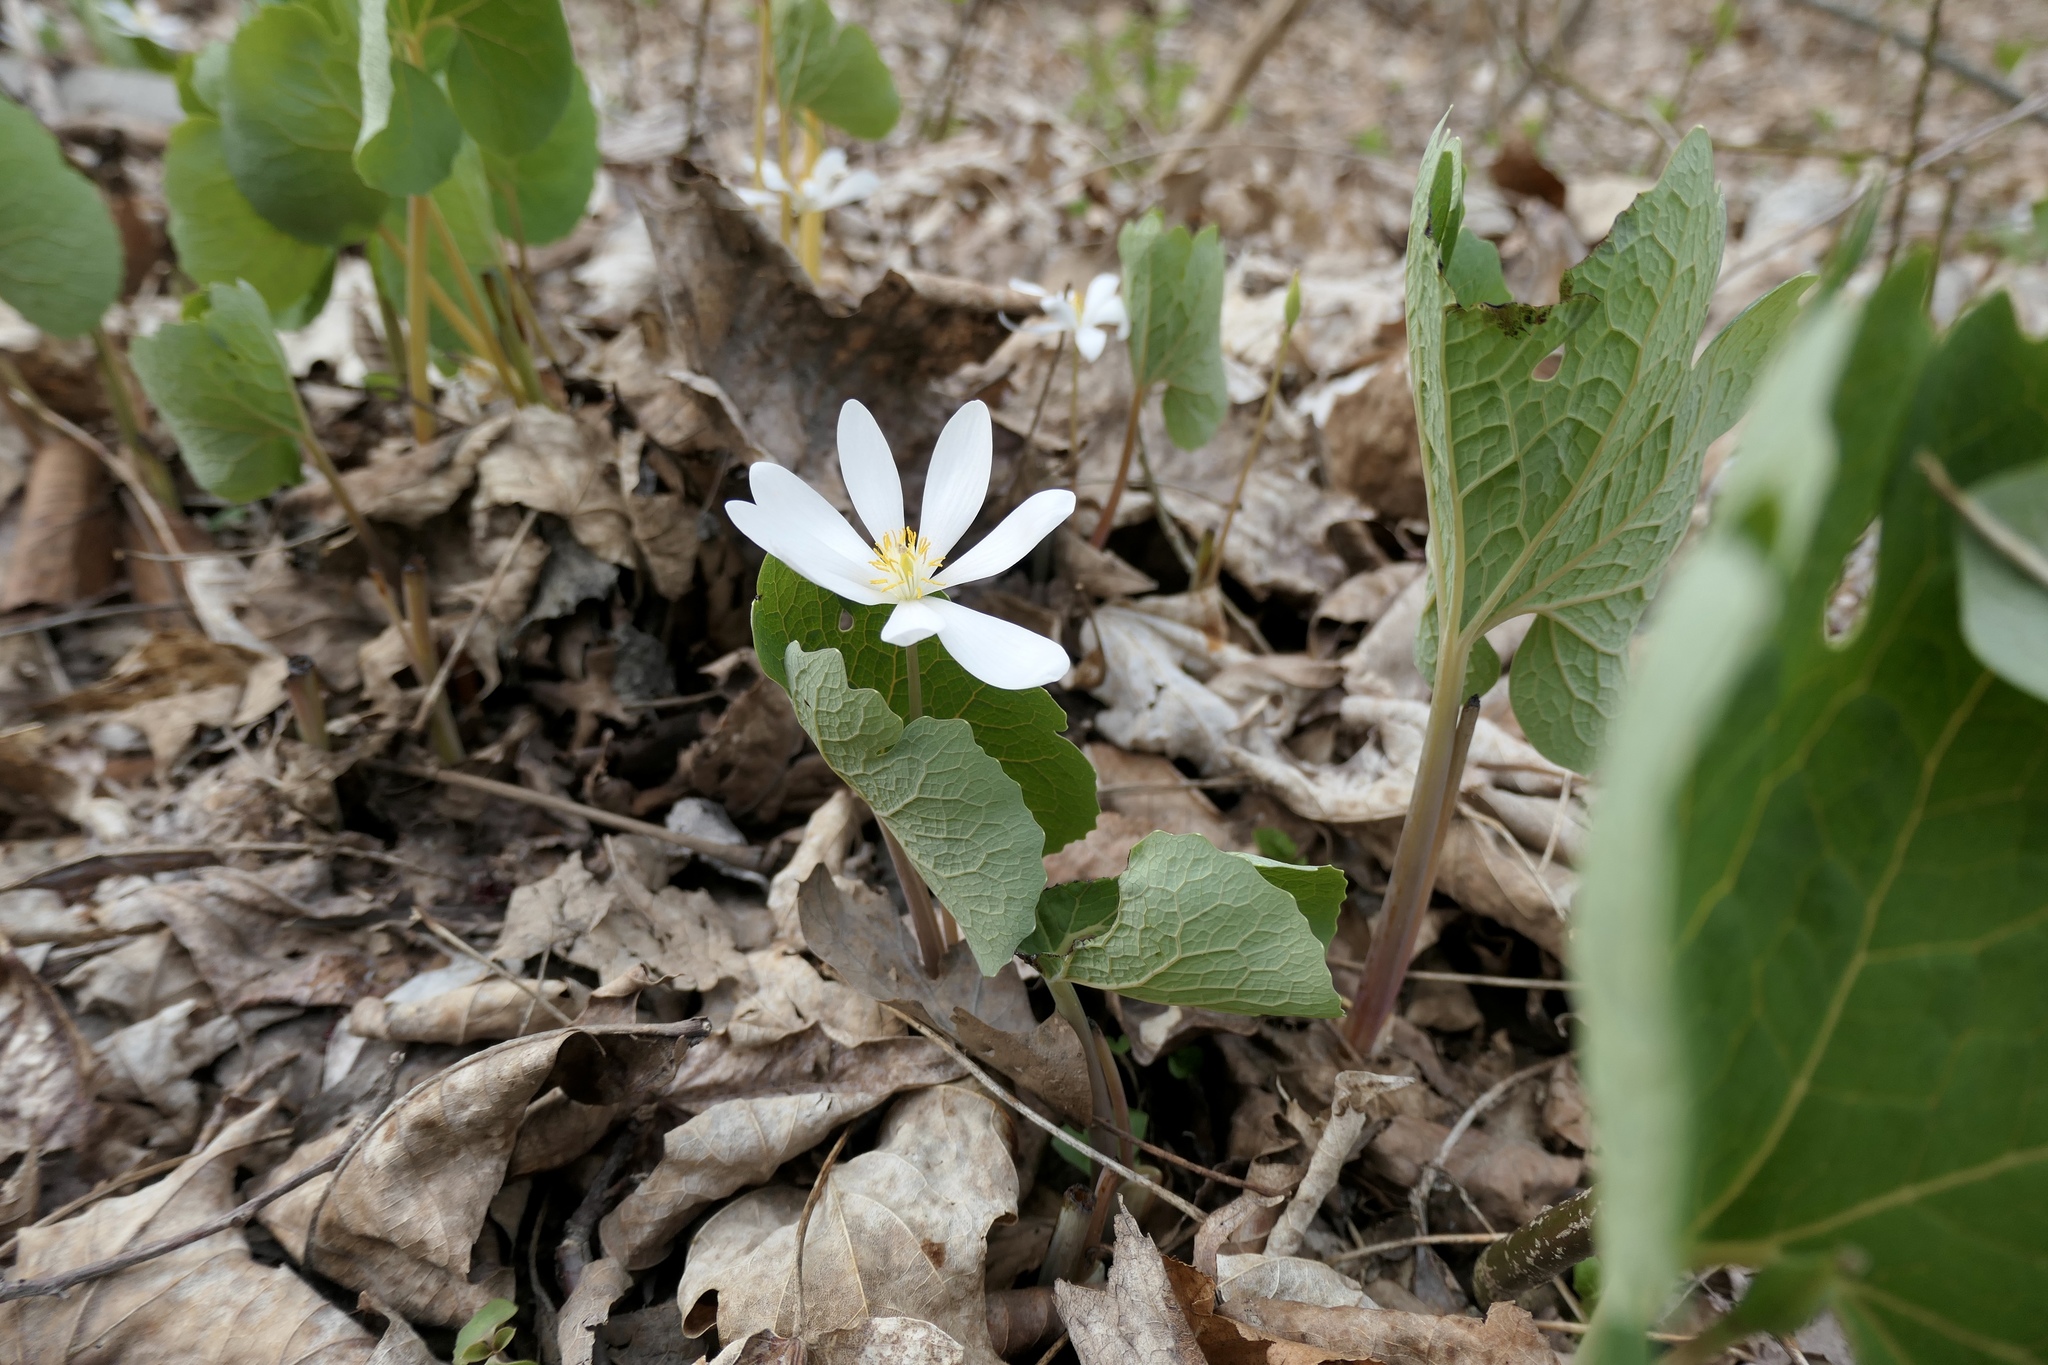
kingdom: Plantae
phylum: Tracheophyta
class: Magnoliopsida
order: Ranunculales
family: Papaveraceae
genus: Sanguinaria
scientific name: Sanguinaria canadensis
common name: Bloodroot
